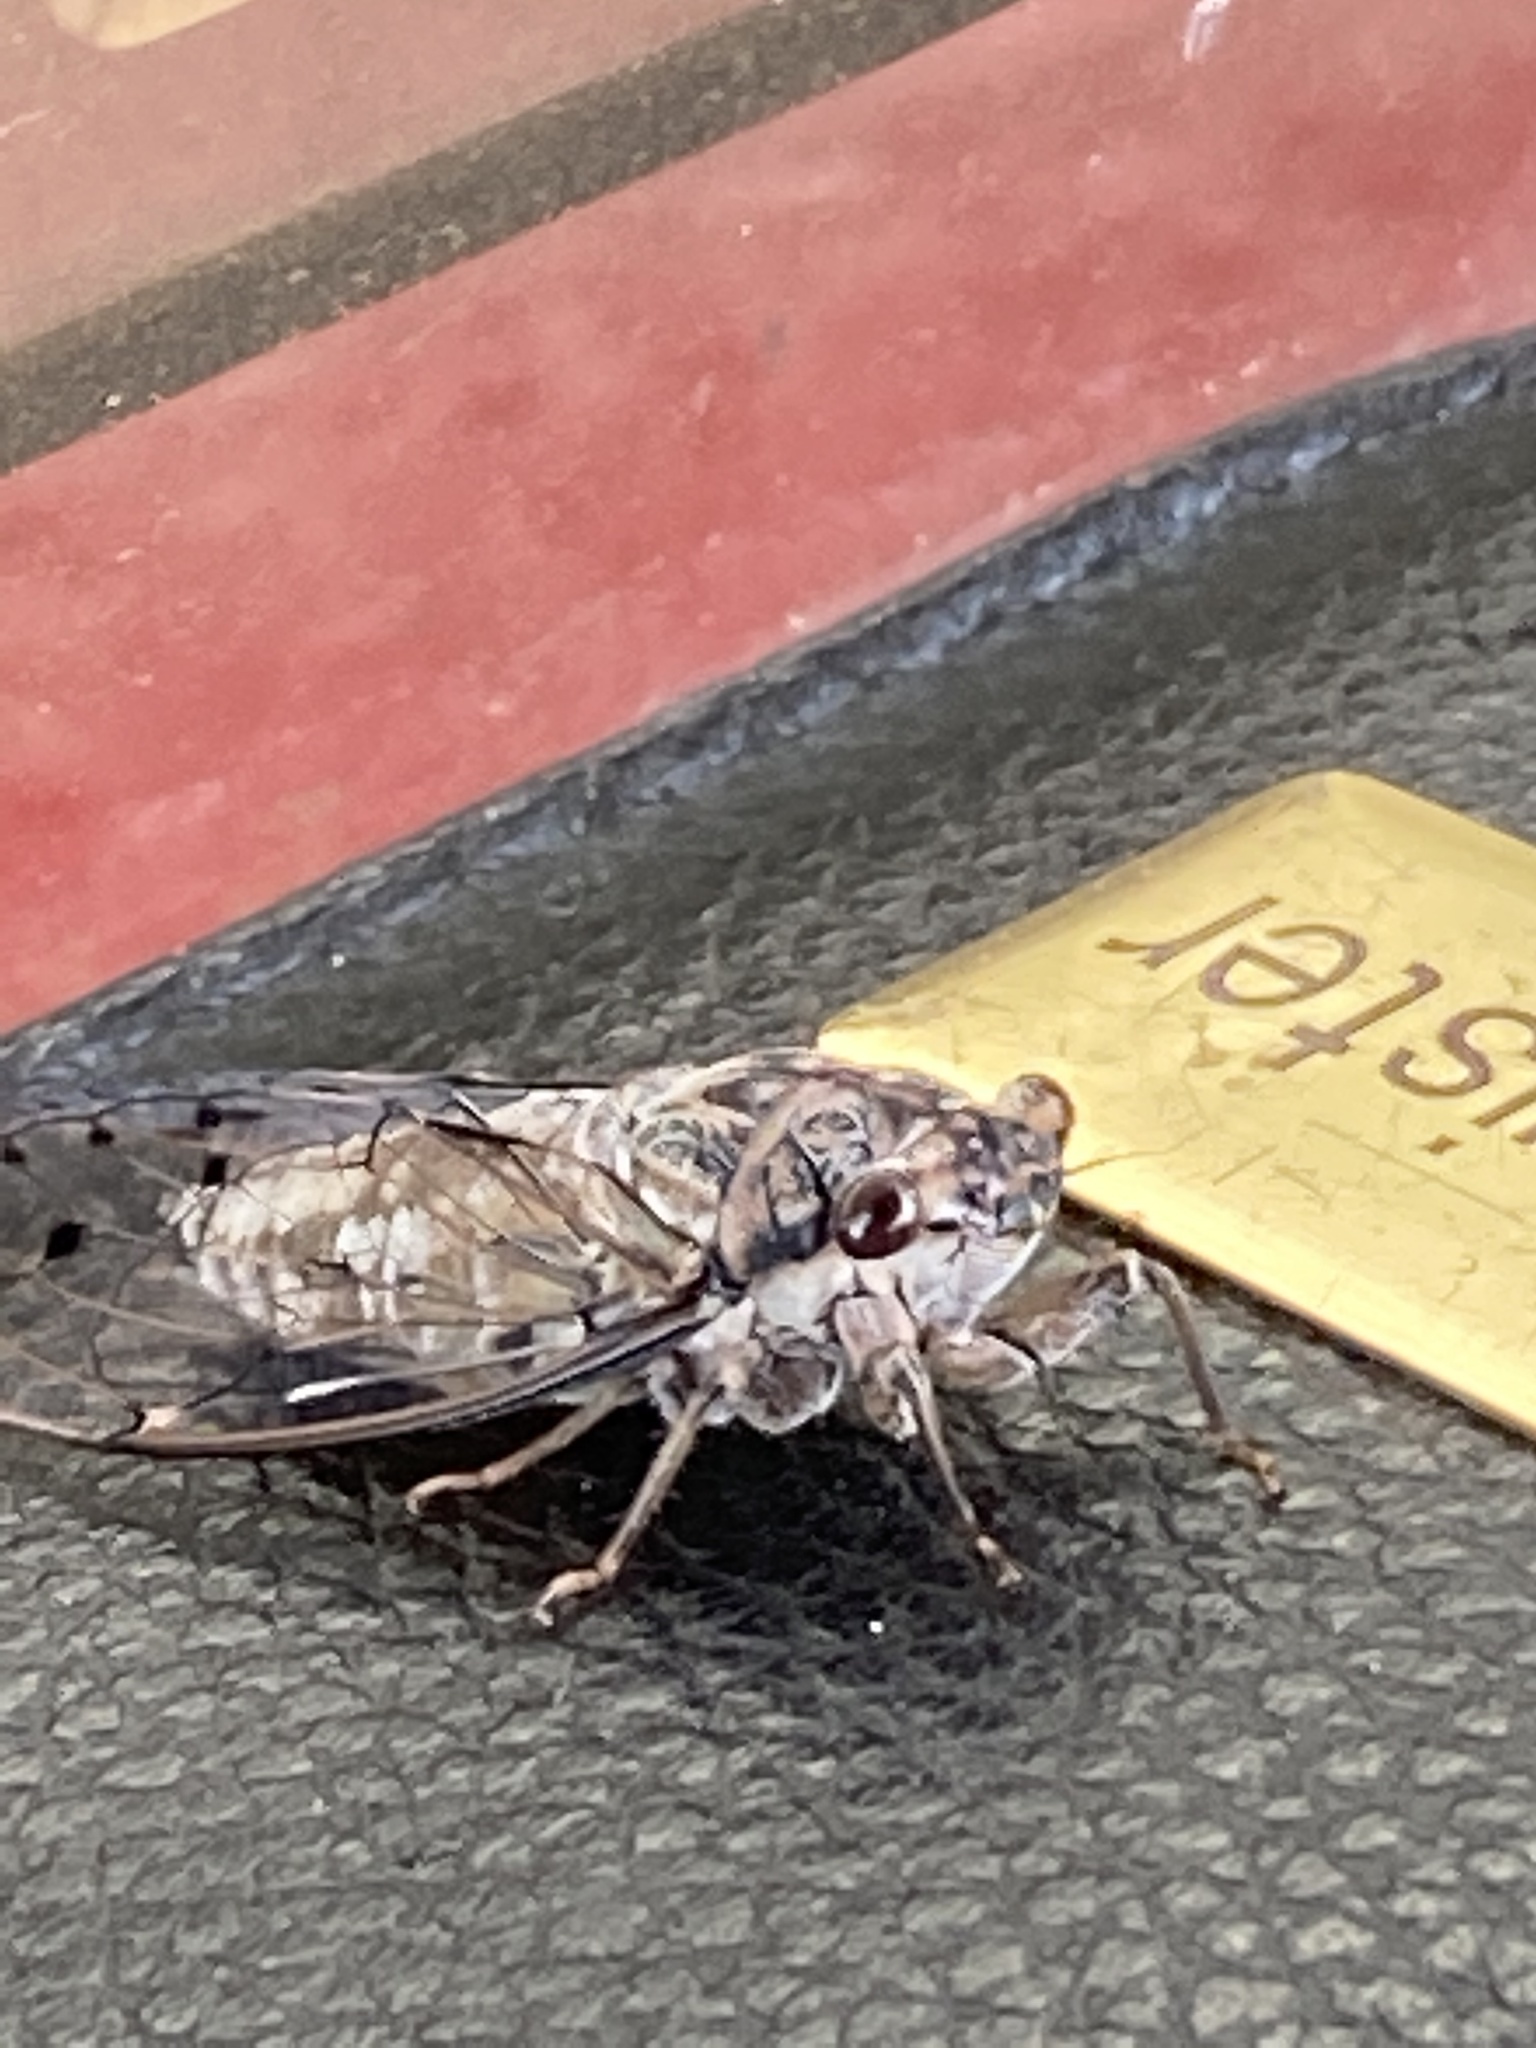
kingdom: Animalia
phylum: Arthropoda
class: Insecta
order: Hemiptera
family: Cicadidae
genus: Neocicada
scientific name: Neocicada hieroglyphica
